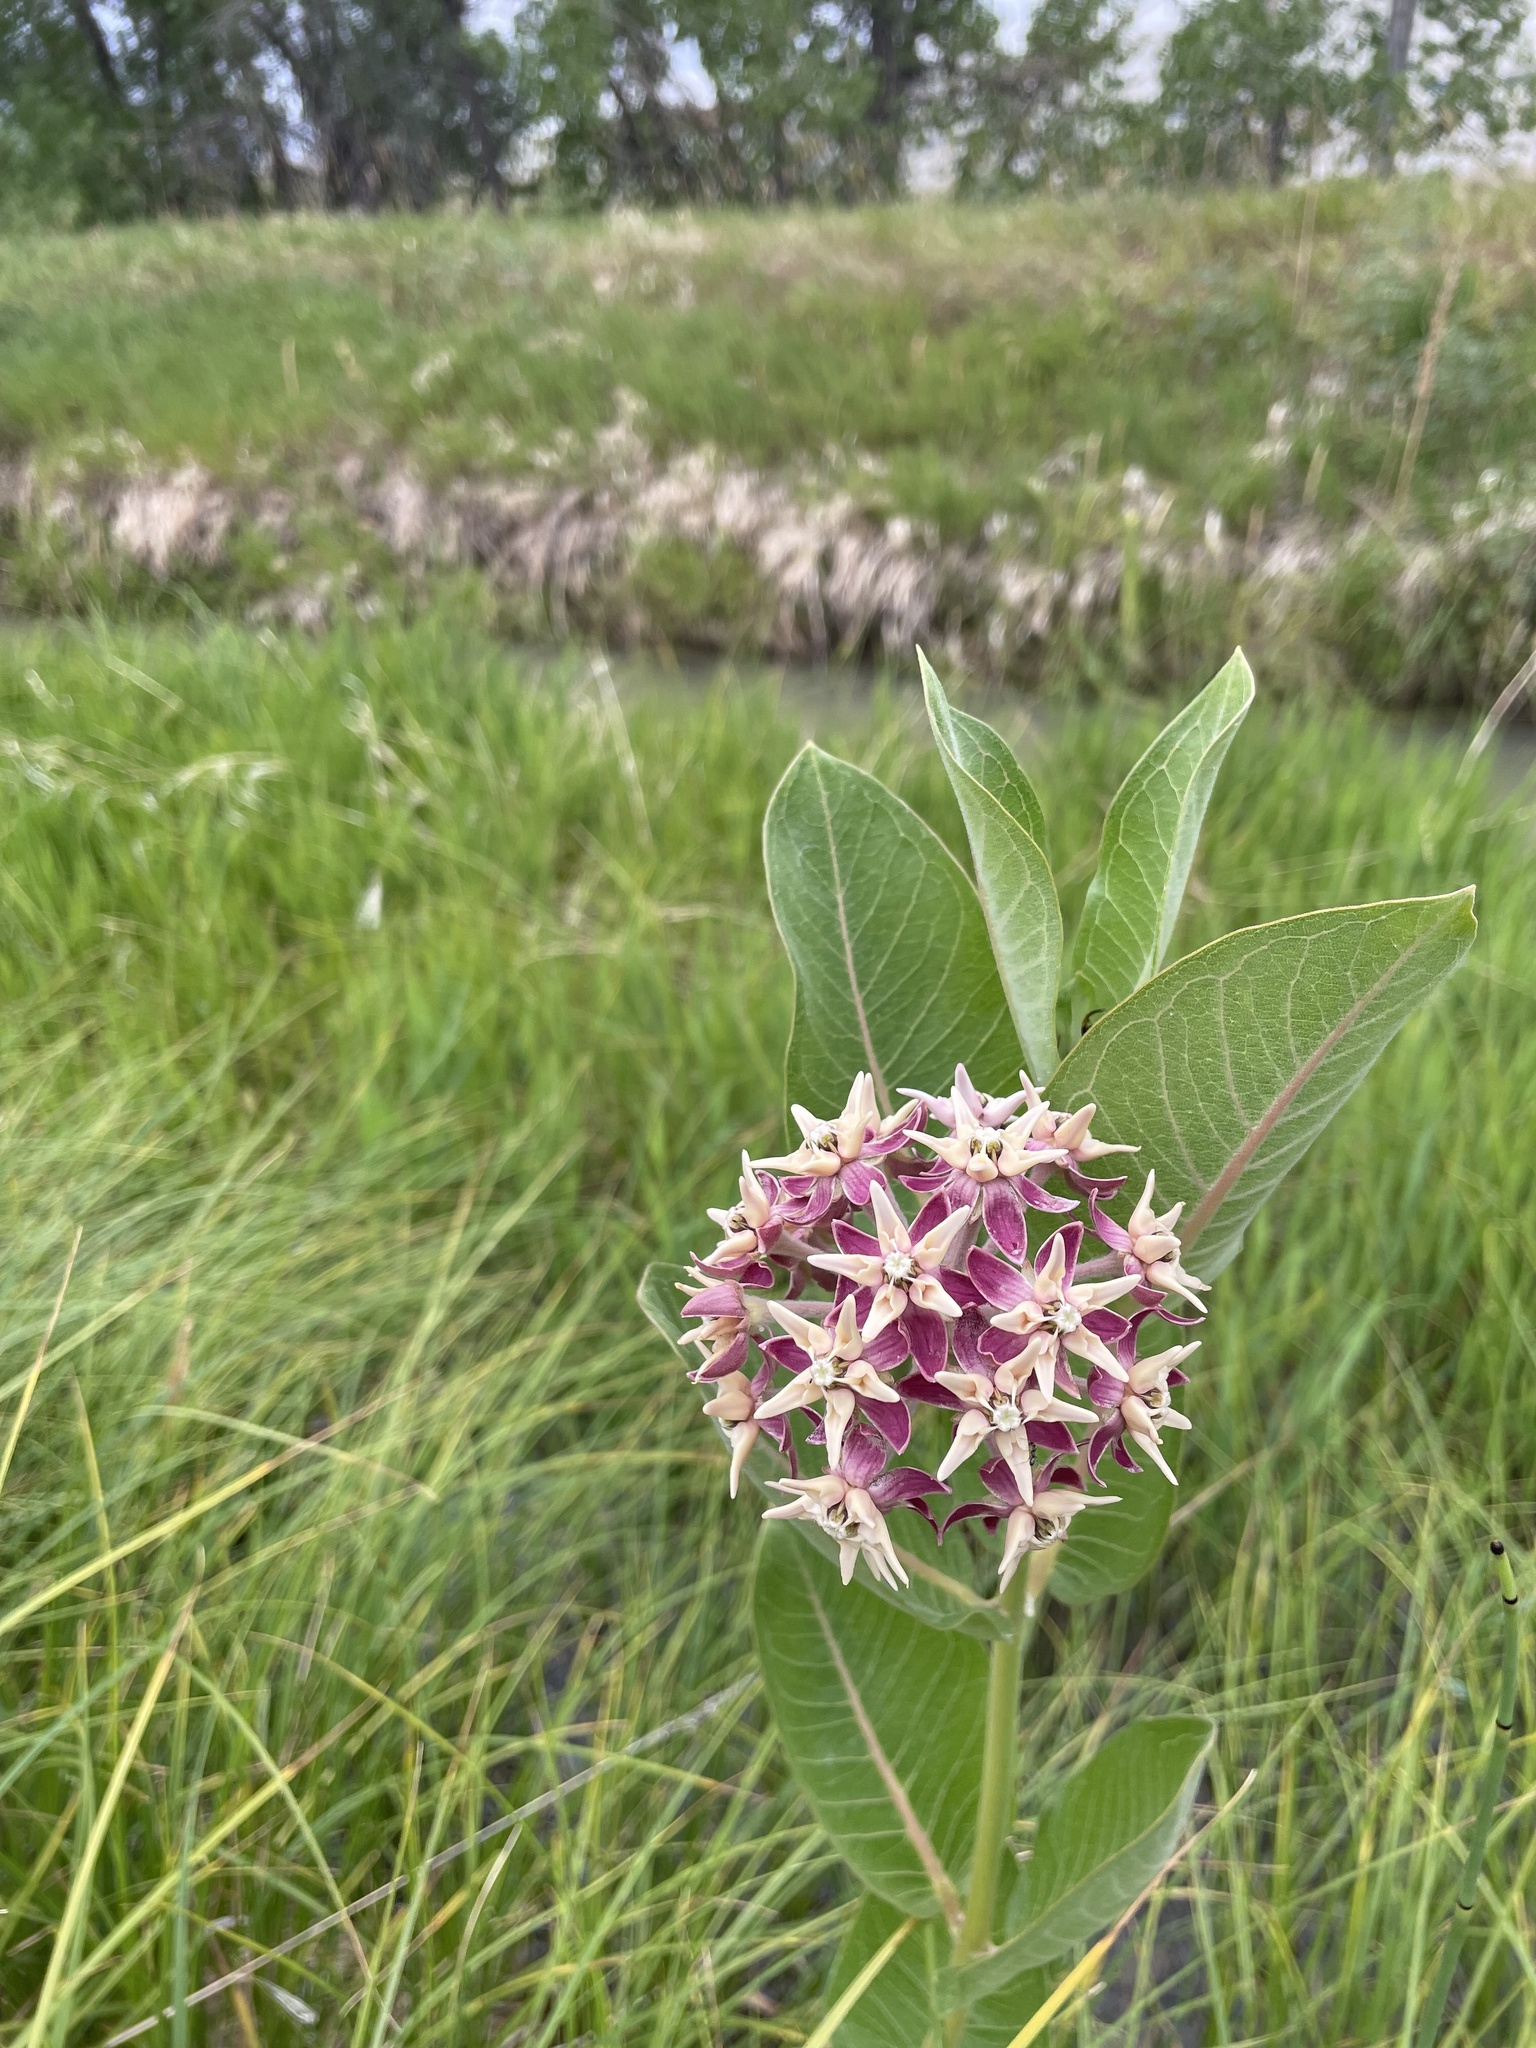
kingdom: Plantae
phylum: Tracheophyta
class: Magnoliopsida
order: Gentianales
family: Apocynaceae
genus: Asclepias
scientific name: Asclepias speciosa
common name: Showy milkweed
